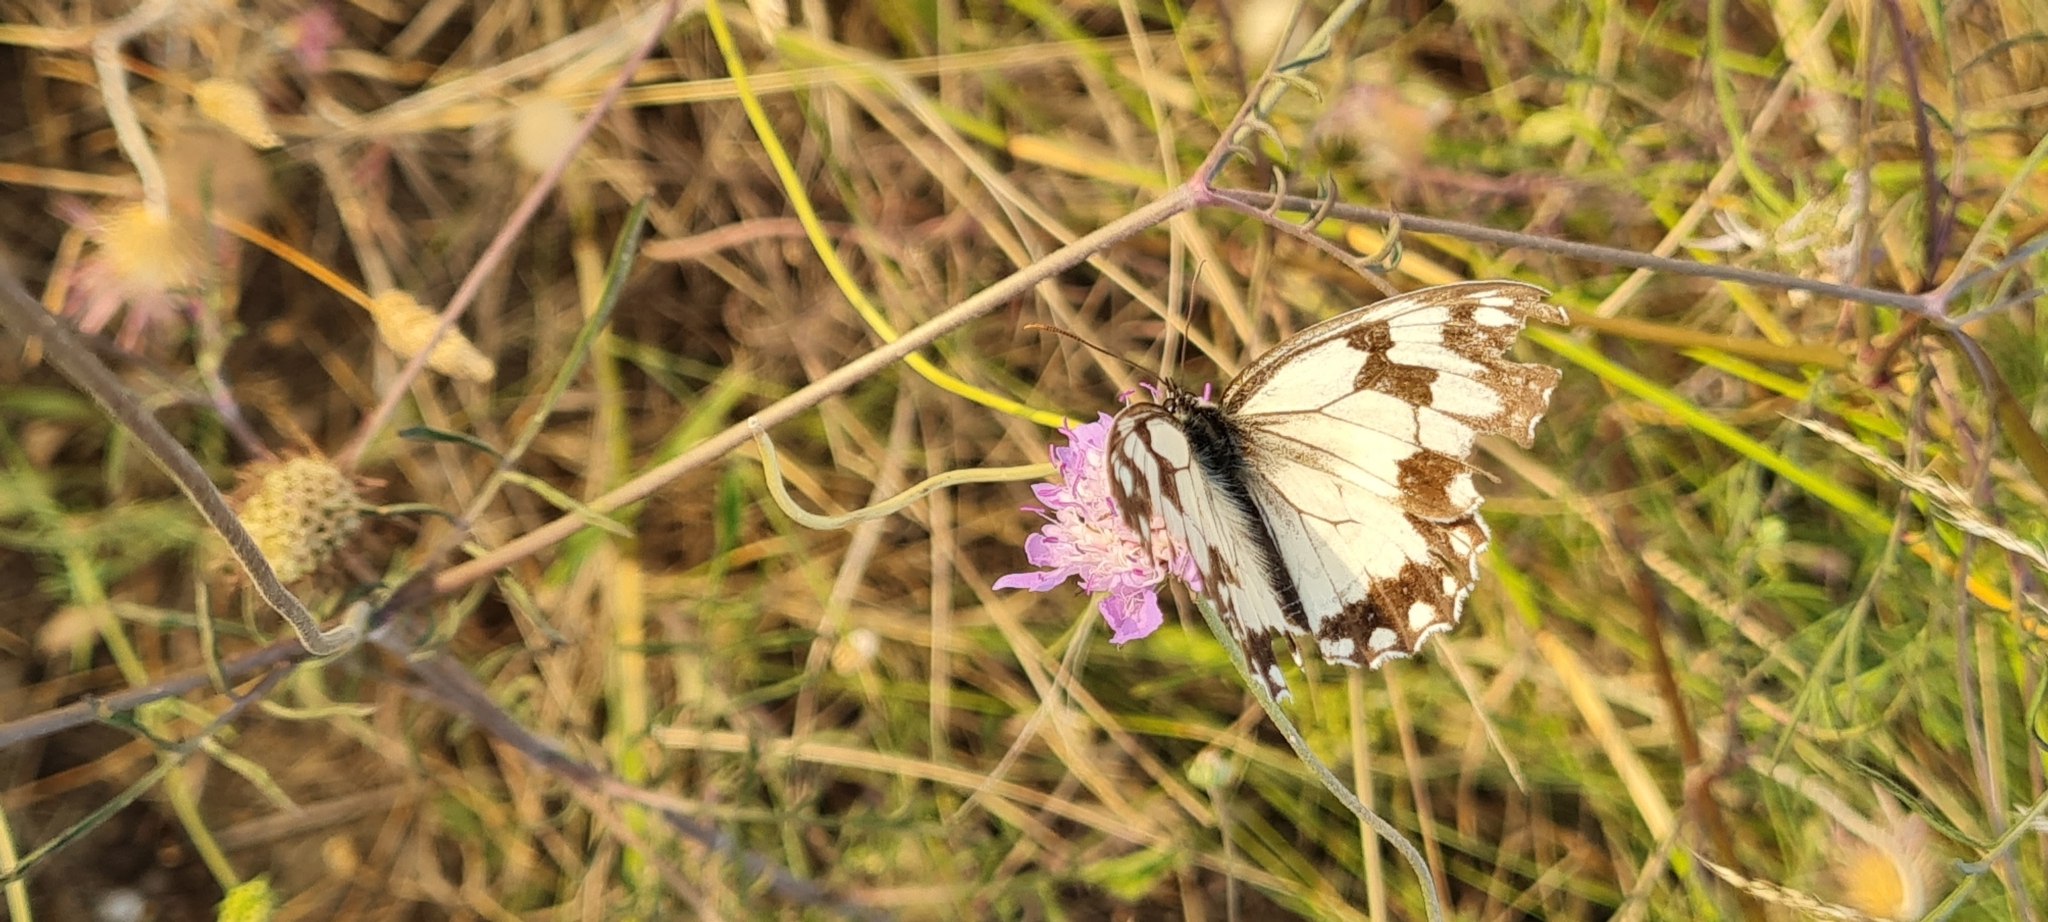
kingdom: Animalia
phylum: Arthropoda
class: Insecta
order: Lepidoptera
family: Nymphalidae
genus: Melanargia
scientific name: Melanargia lachesis
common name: Iberian marbled white
